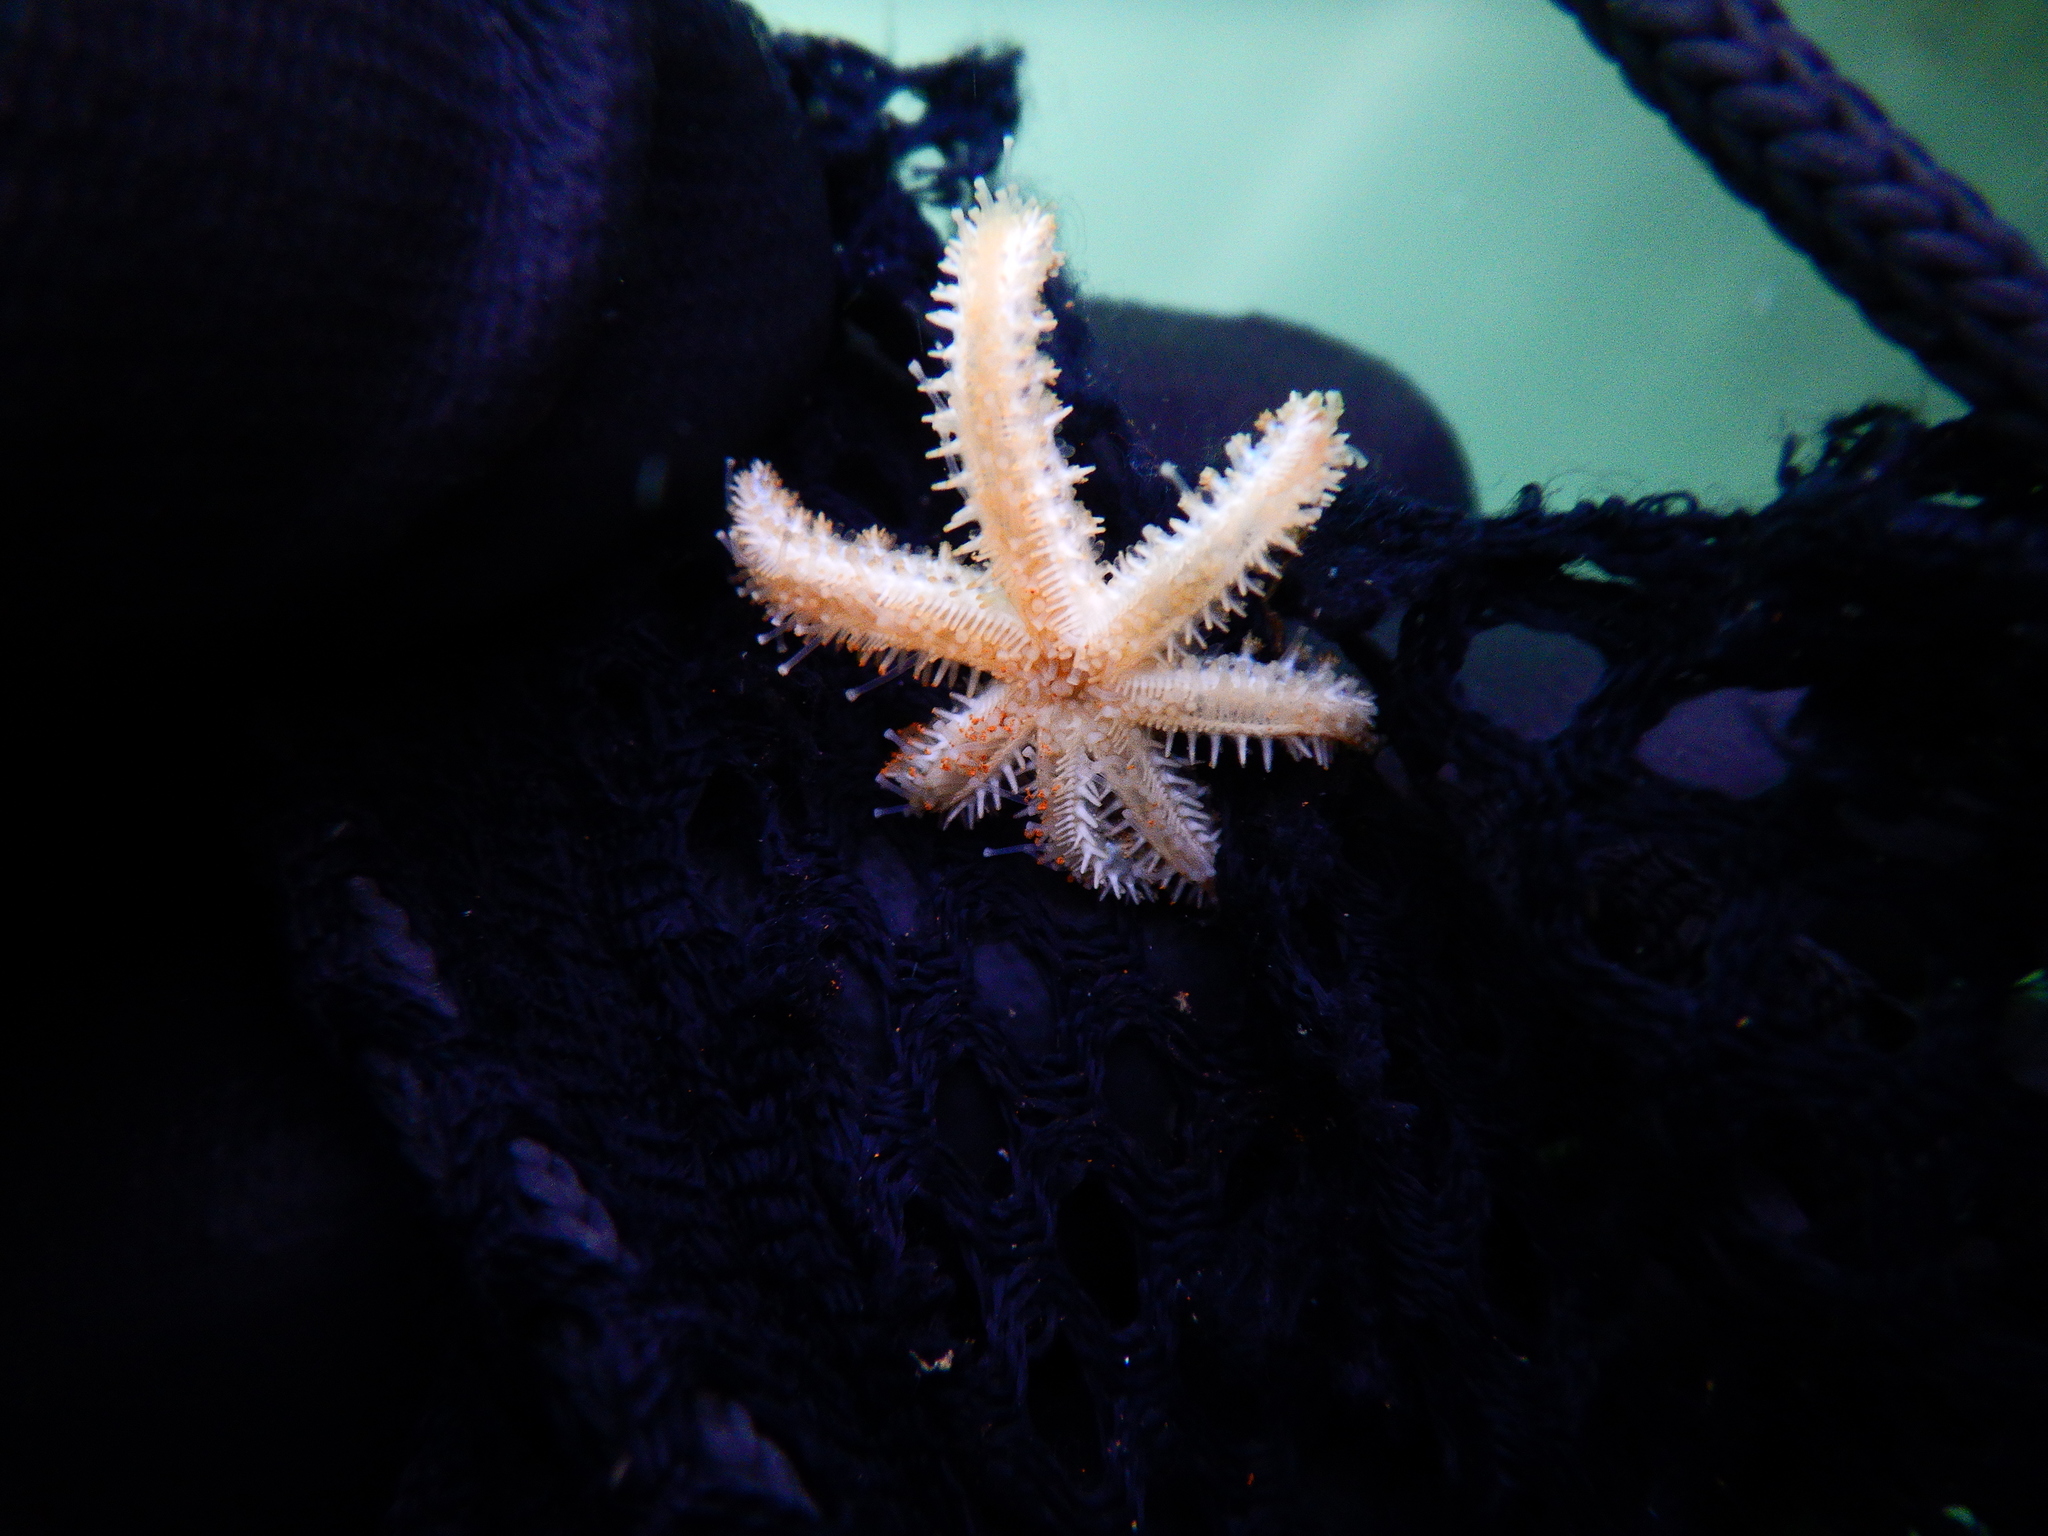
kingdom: Animalia
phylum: Echinodermata
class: Asteroidea
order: Forcipulatida
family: Asteriidae
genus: Coscinasterias
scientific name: Coscinasterias tenuispina
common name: Blue spiny starfish
